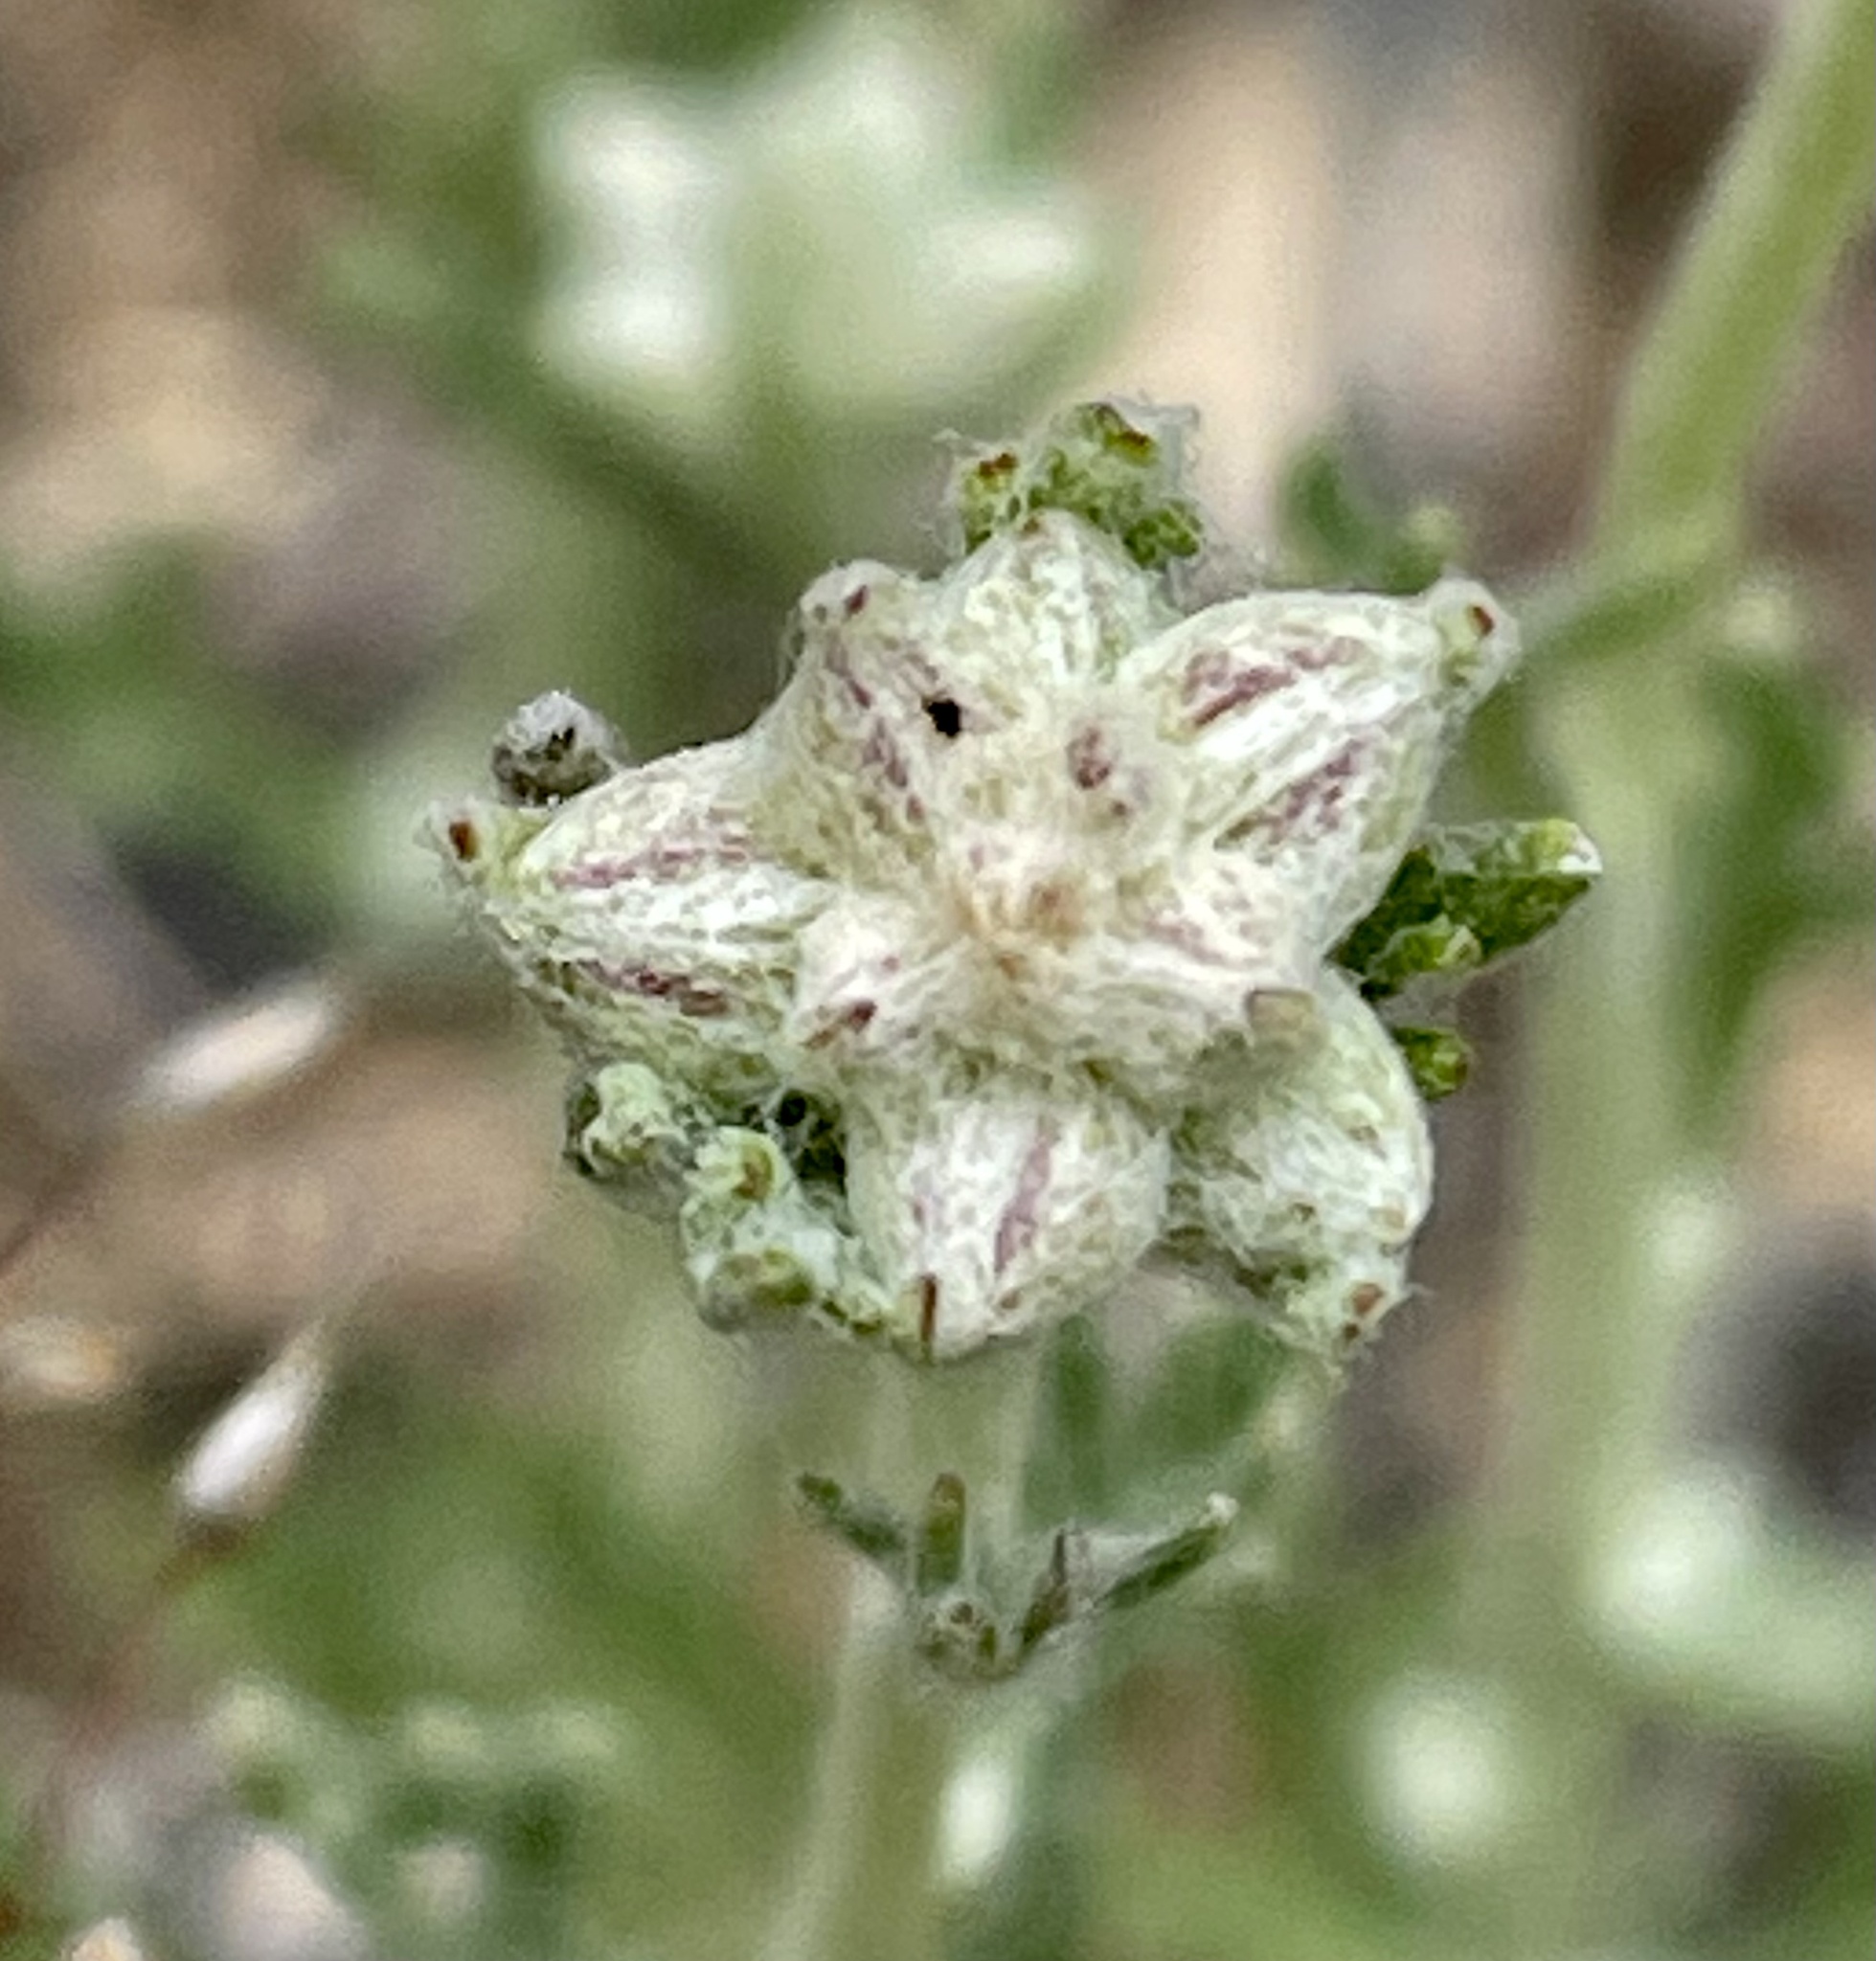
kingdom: Plantae
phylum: Tracheophyta
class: Magnoliopsida
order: Asterales
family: Asteraceae
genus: Eriophyllum
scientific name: Eriophyllum confertiflorum
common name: Golden-yarrow
